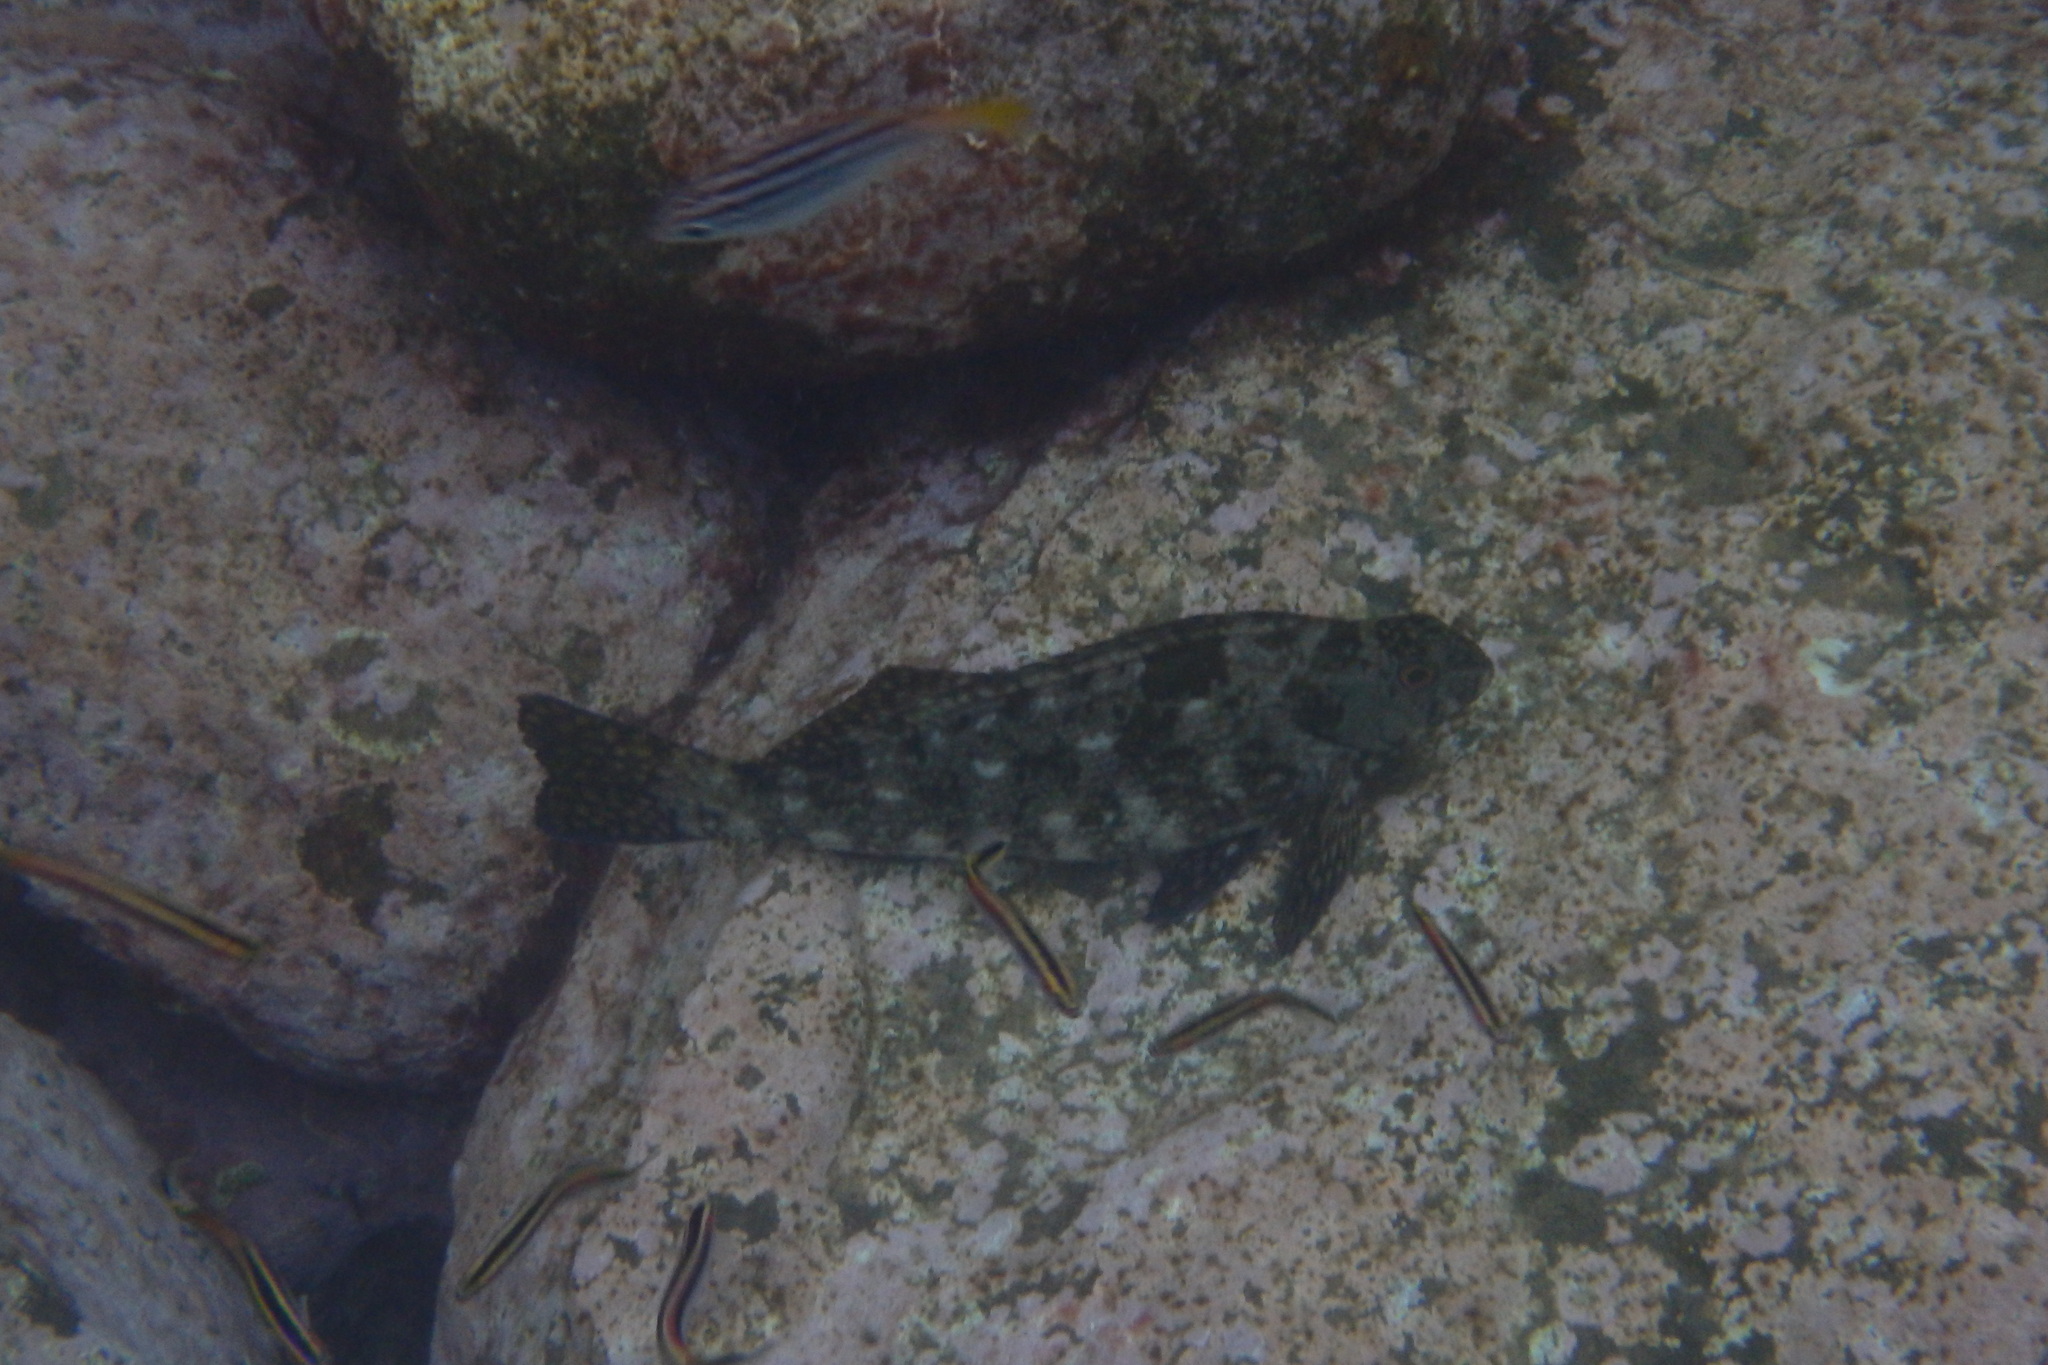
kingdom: Animalia
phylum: Chordata
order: Perciformes
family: Aplodactylidae
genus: Aplodactylus
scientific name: Aplodactylus lophodon
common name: Cockatoo fish
